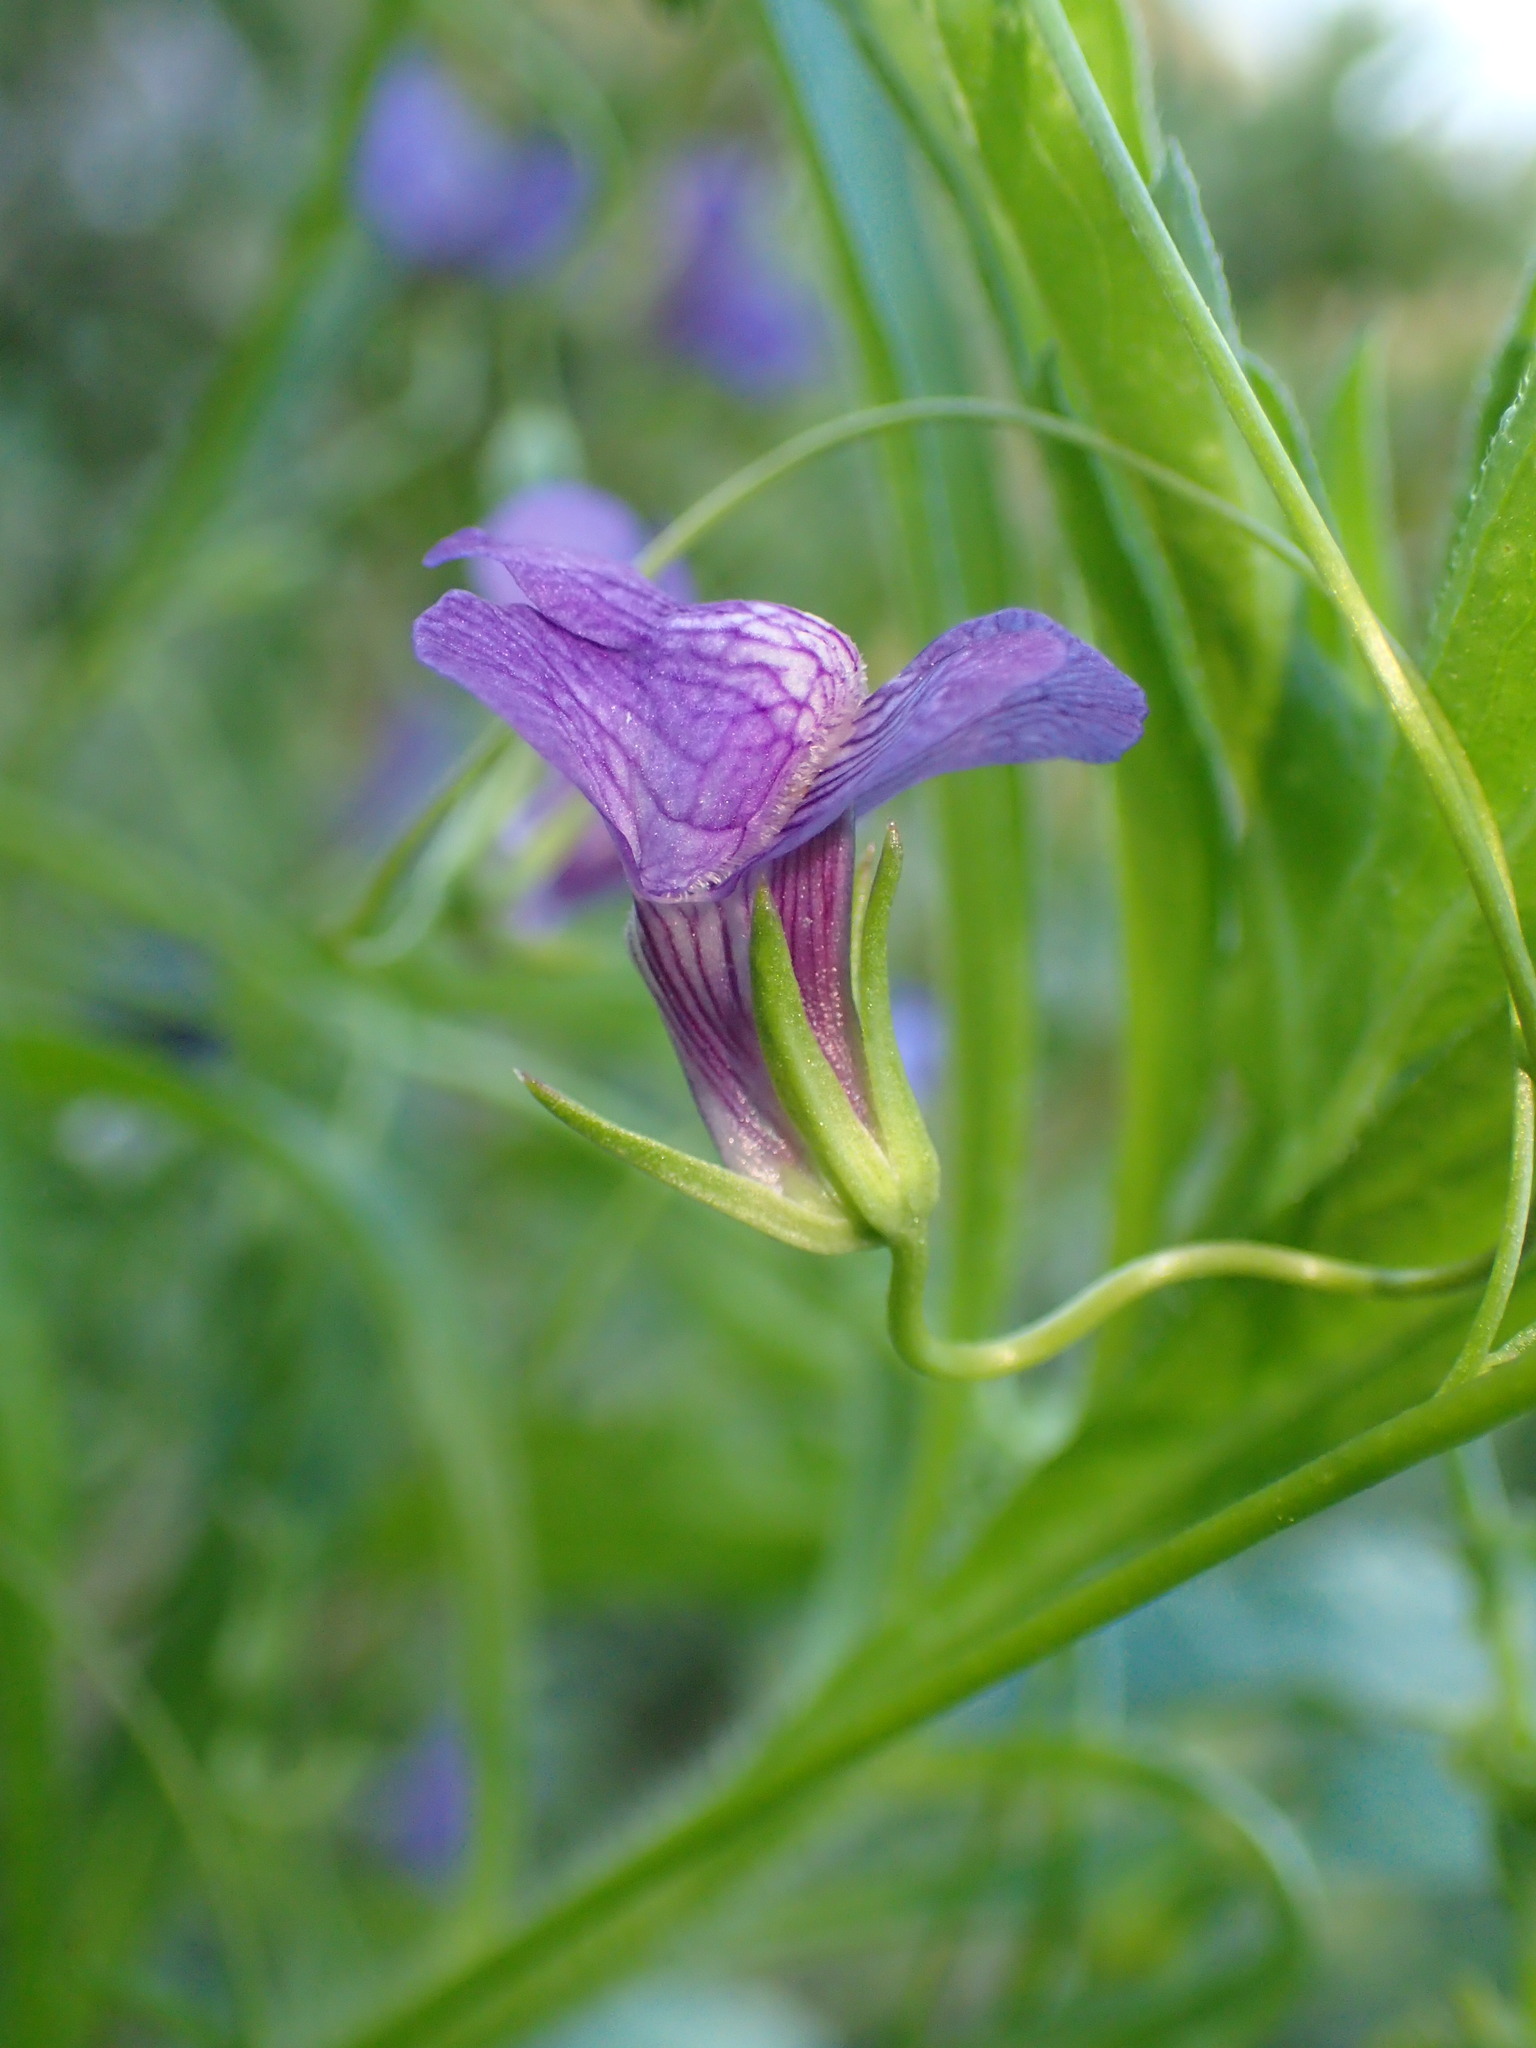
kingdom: Plantae
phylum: Tracheophyta
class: Magnoliopsida
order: Lamiales
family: Plantaginaceae
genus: Neogaerrhinum
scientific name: Neogaerrhinum strictum
